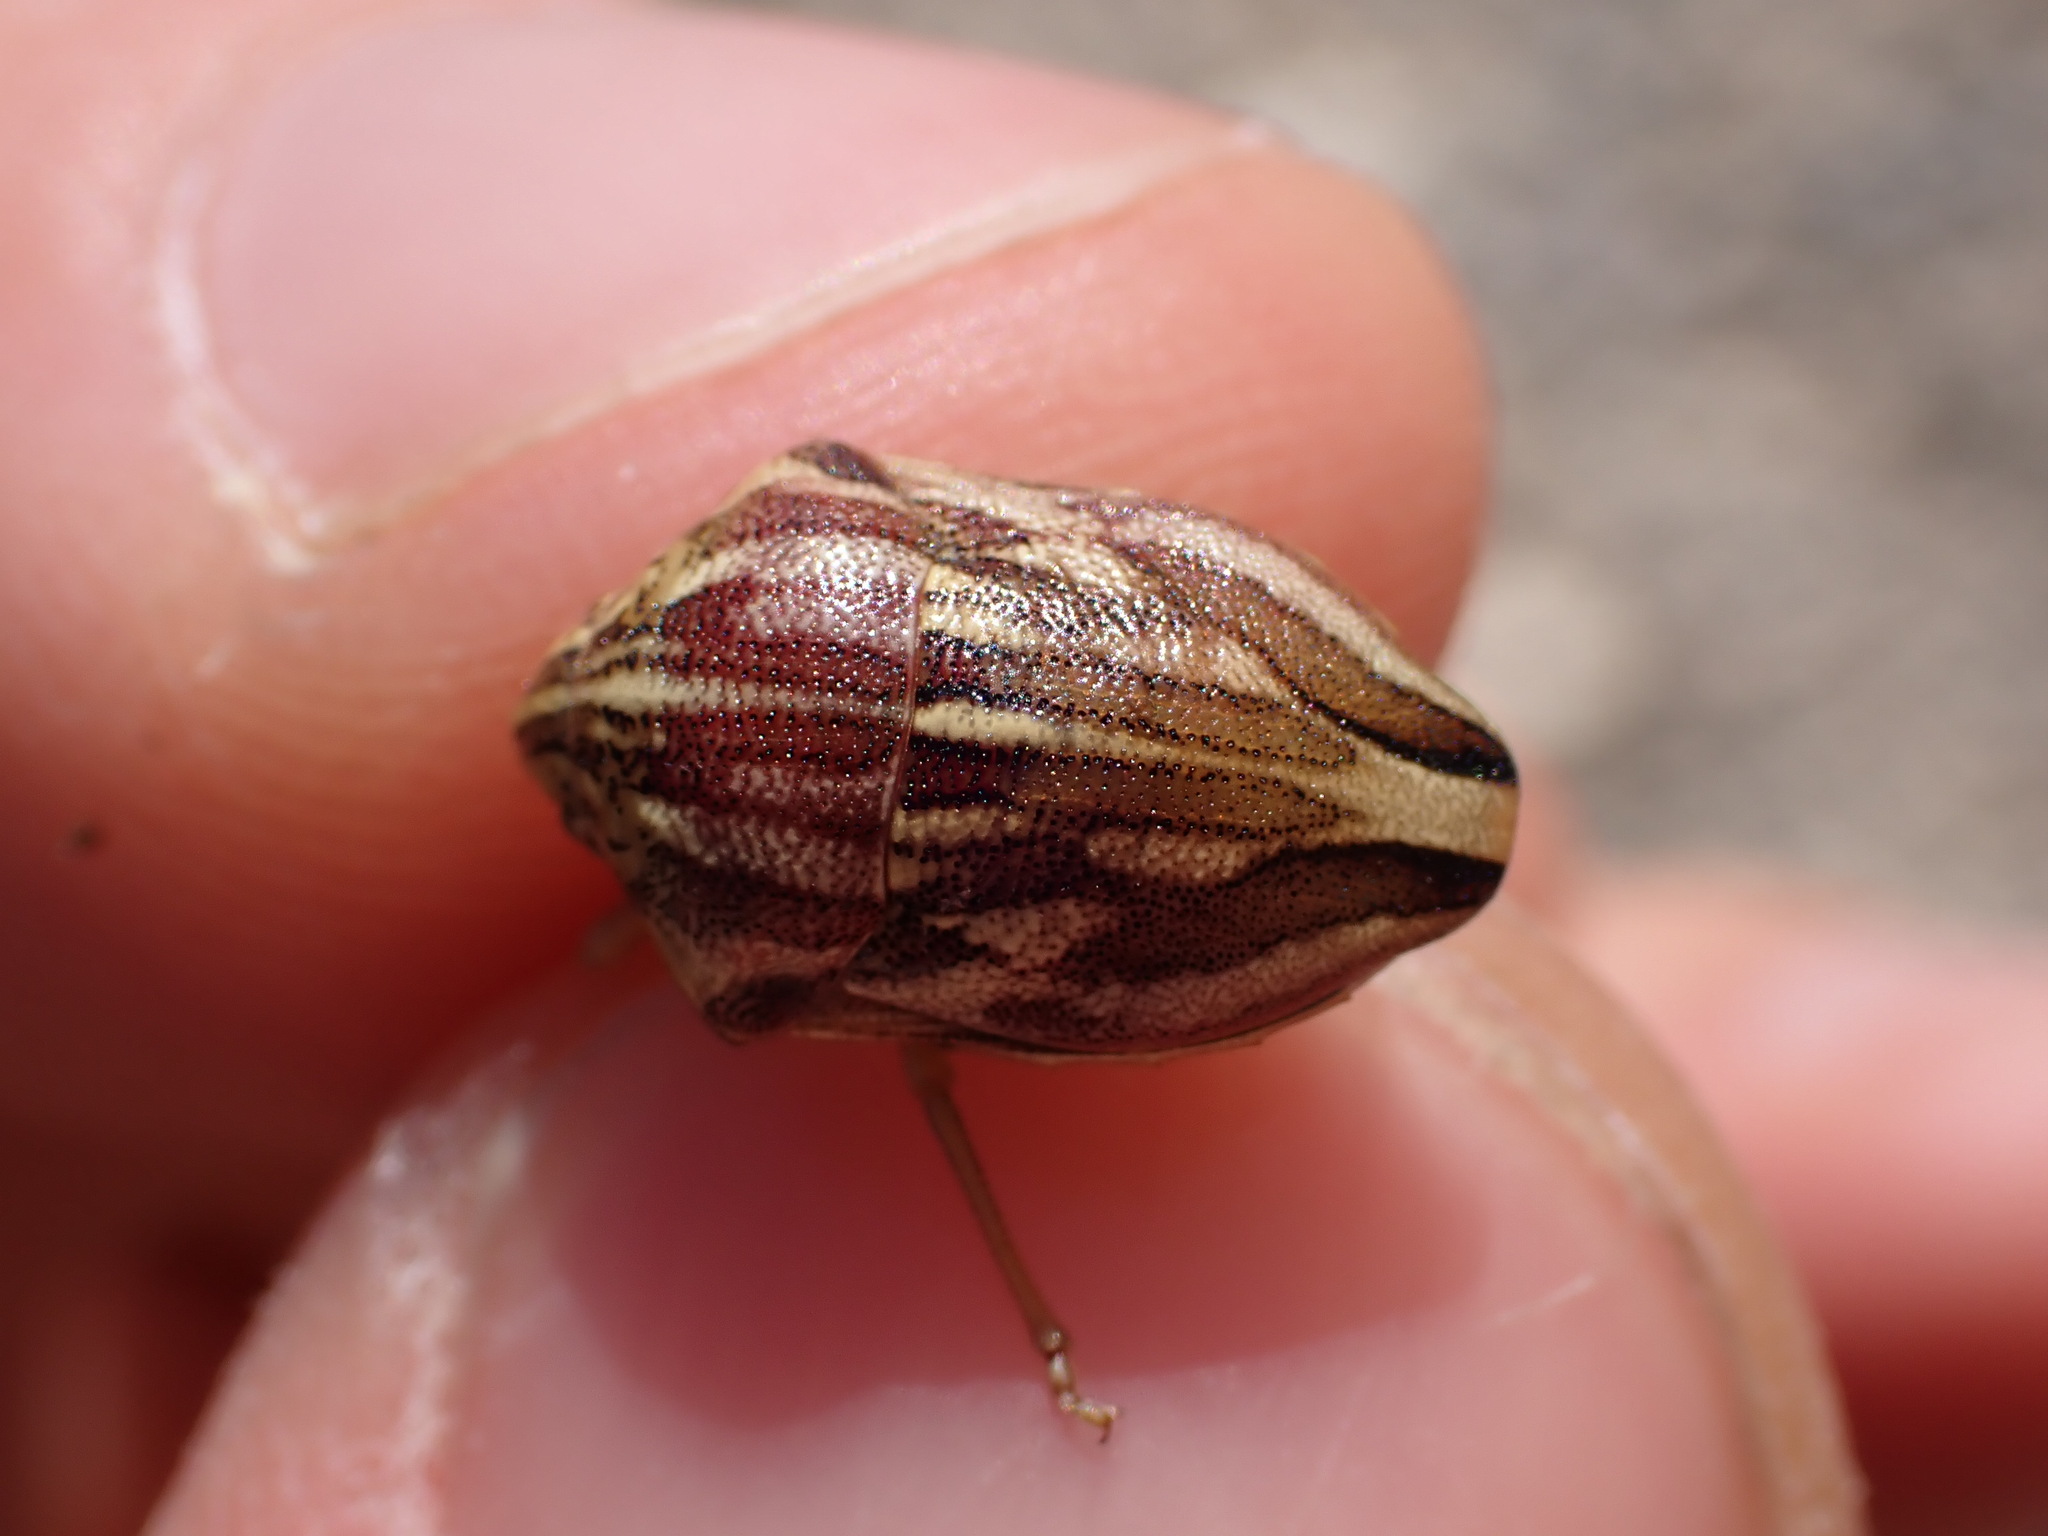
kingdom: Animalia
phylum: Arthropoda
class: Insecta
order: Hemiptera
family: Scutelleridae
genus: Odontotarsus
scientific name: Odontotarsus purpureolineatus
